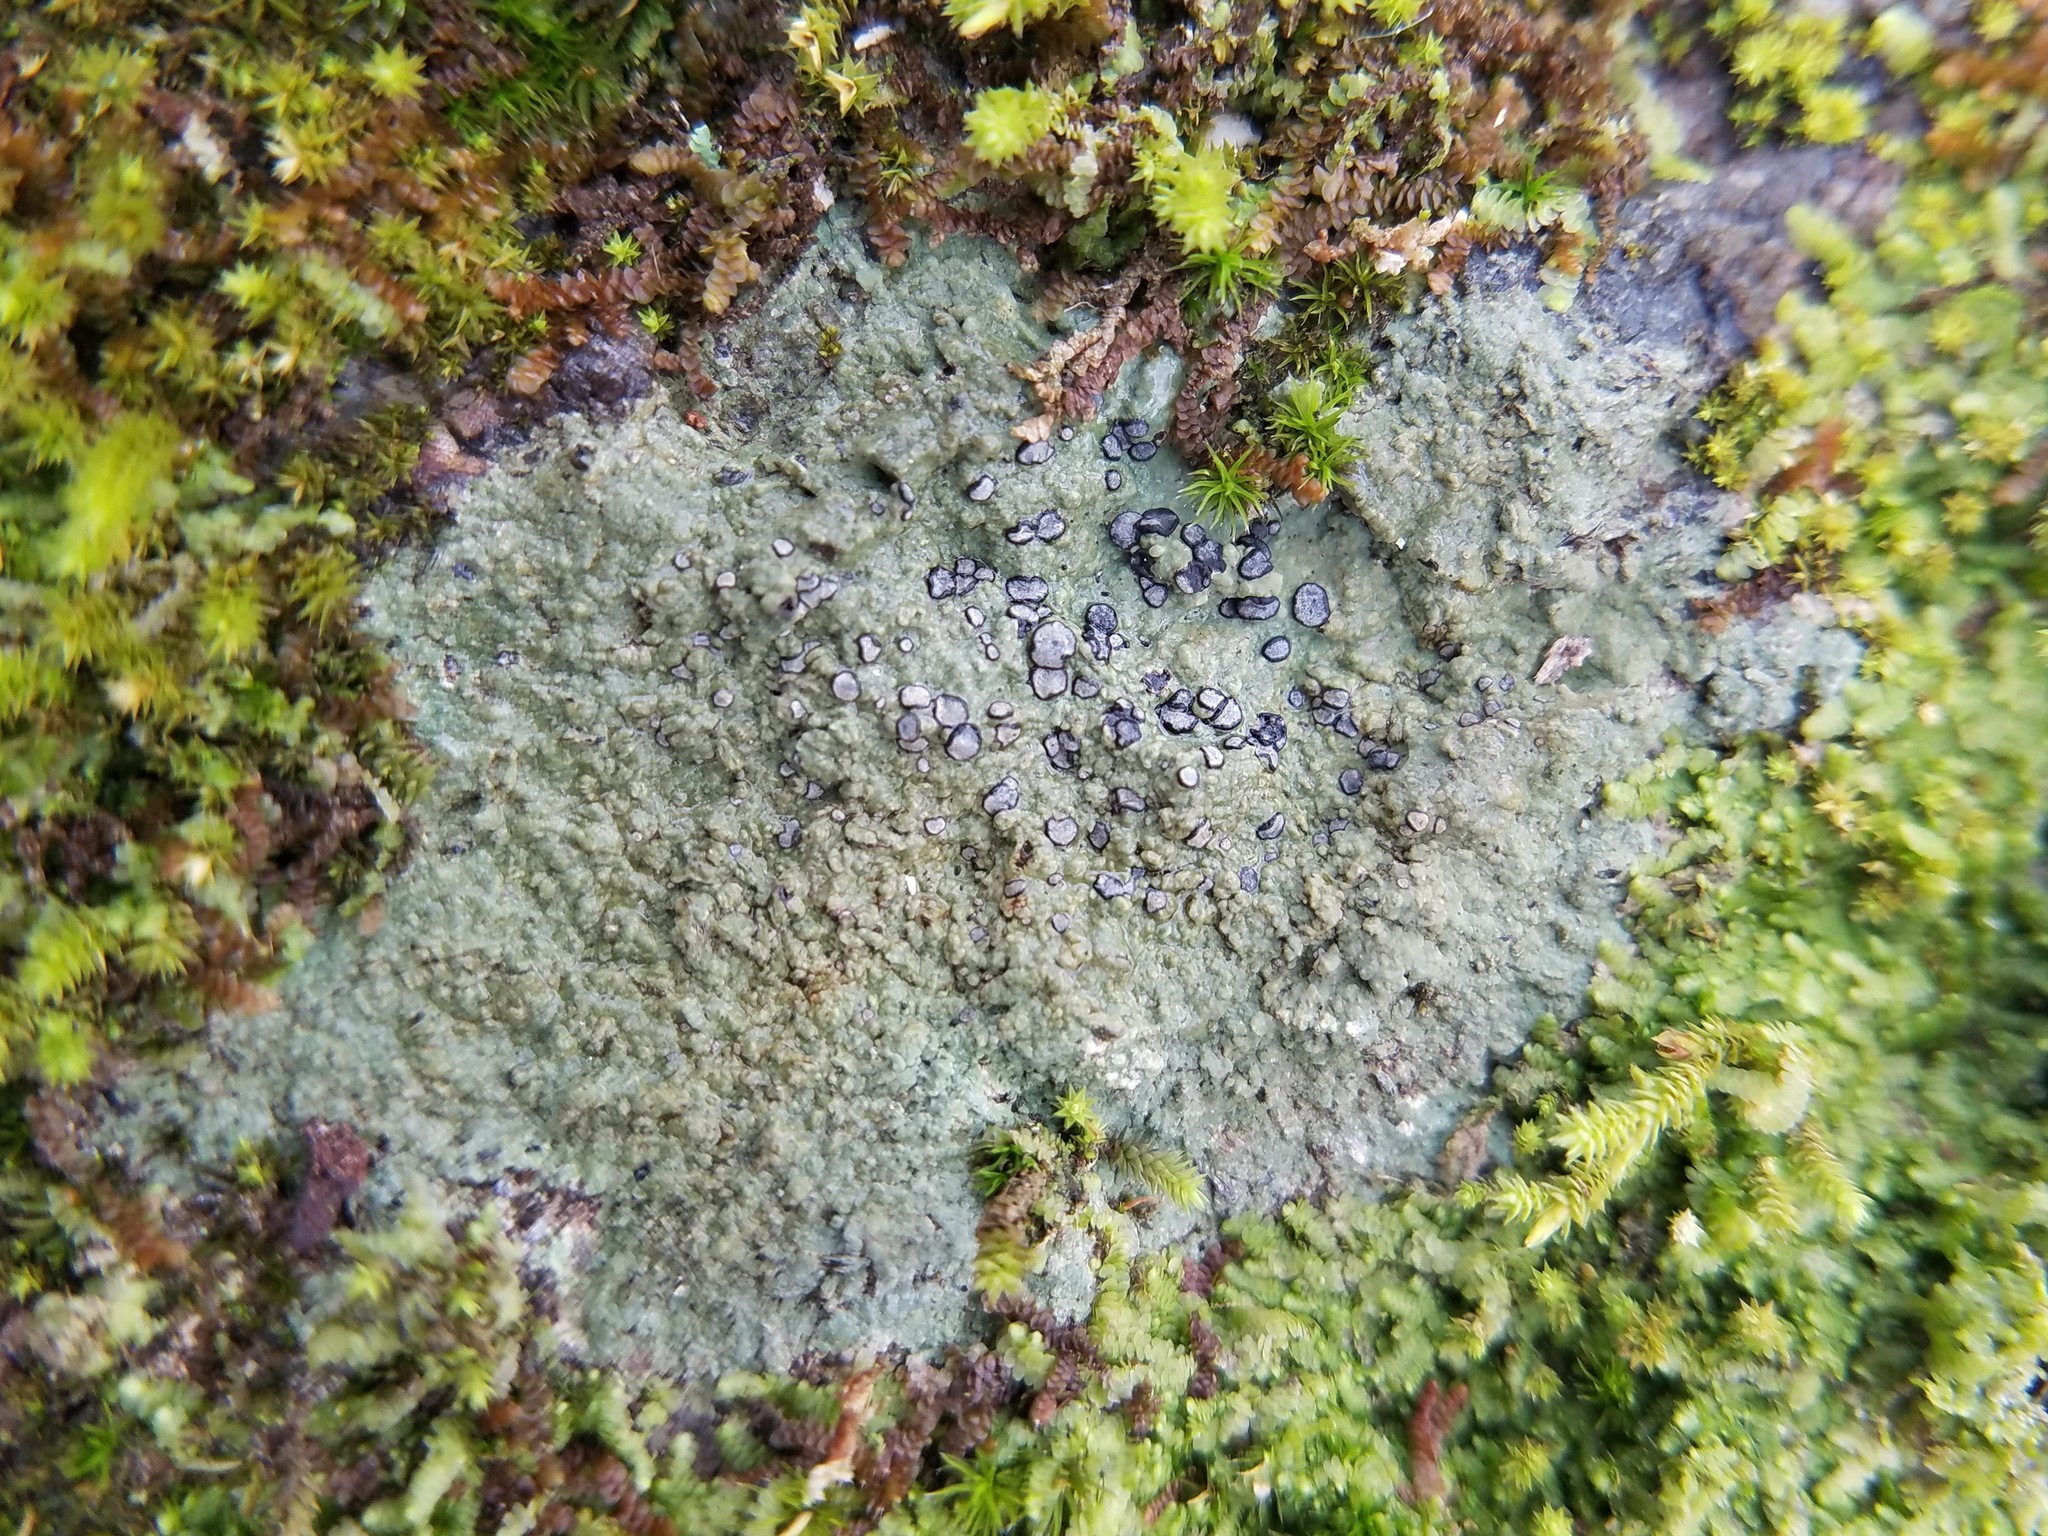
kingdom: Fungi
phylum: Ascomycota
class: Lecanoromycetes
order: Lecideales
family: Lecideaceae
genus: Porpidia
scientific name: Porpidia albocaerulescens
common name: Smokey-eyed boulder lichen
